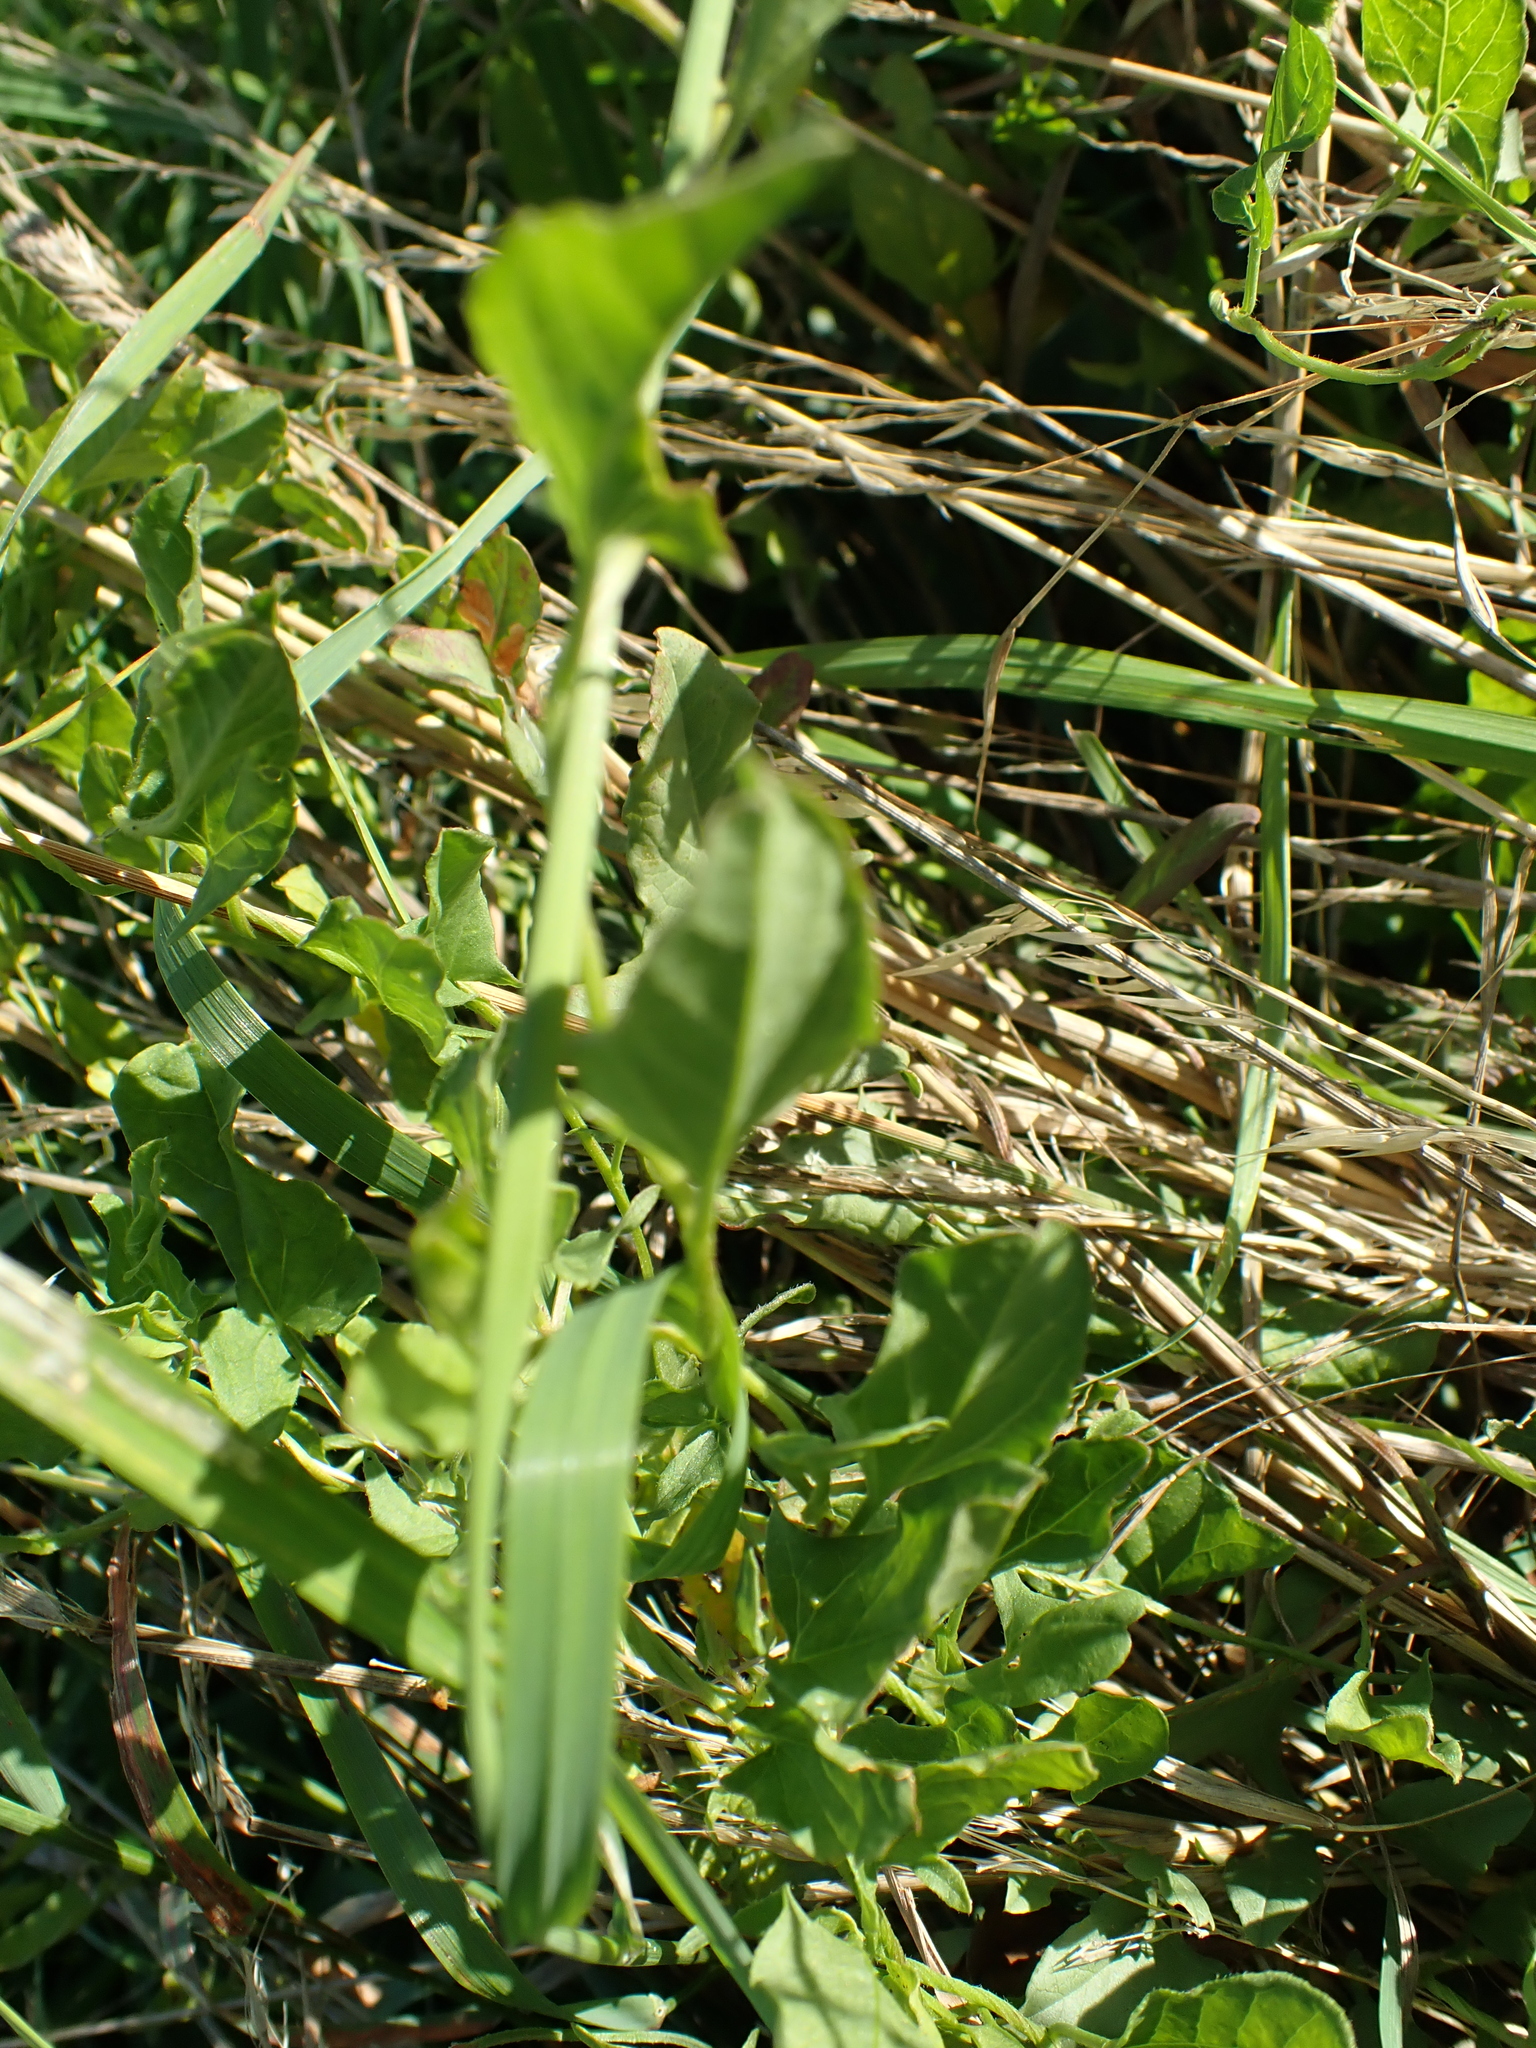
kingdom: Plantae
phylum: Tracheophyta
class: Magnoliopsida
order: Solanales
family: Convolvulaceae
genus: Convolvulus
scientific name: Convolvulus arvensis
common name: Field bindweed
